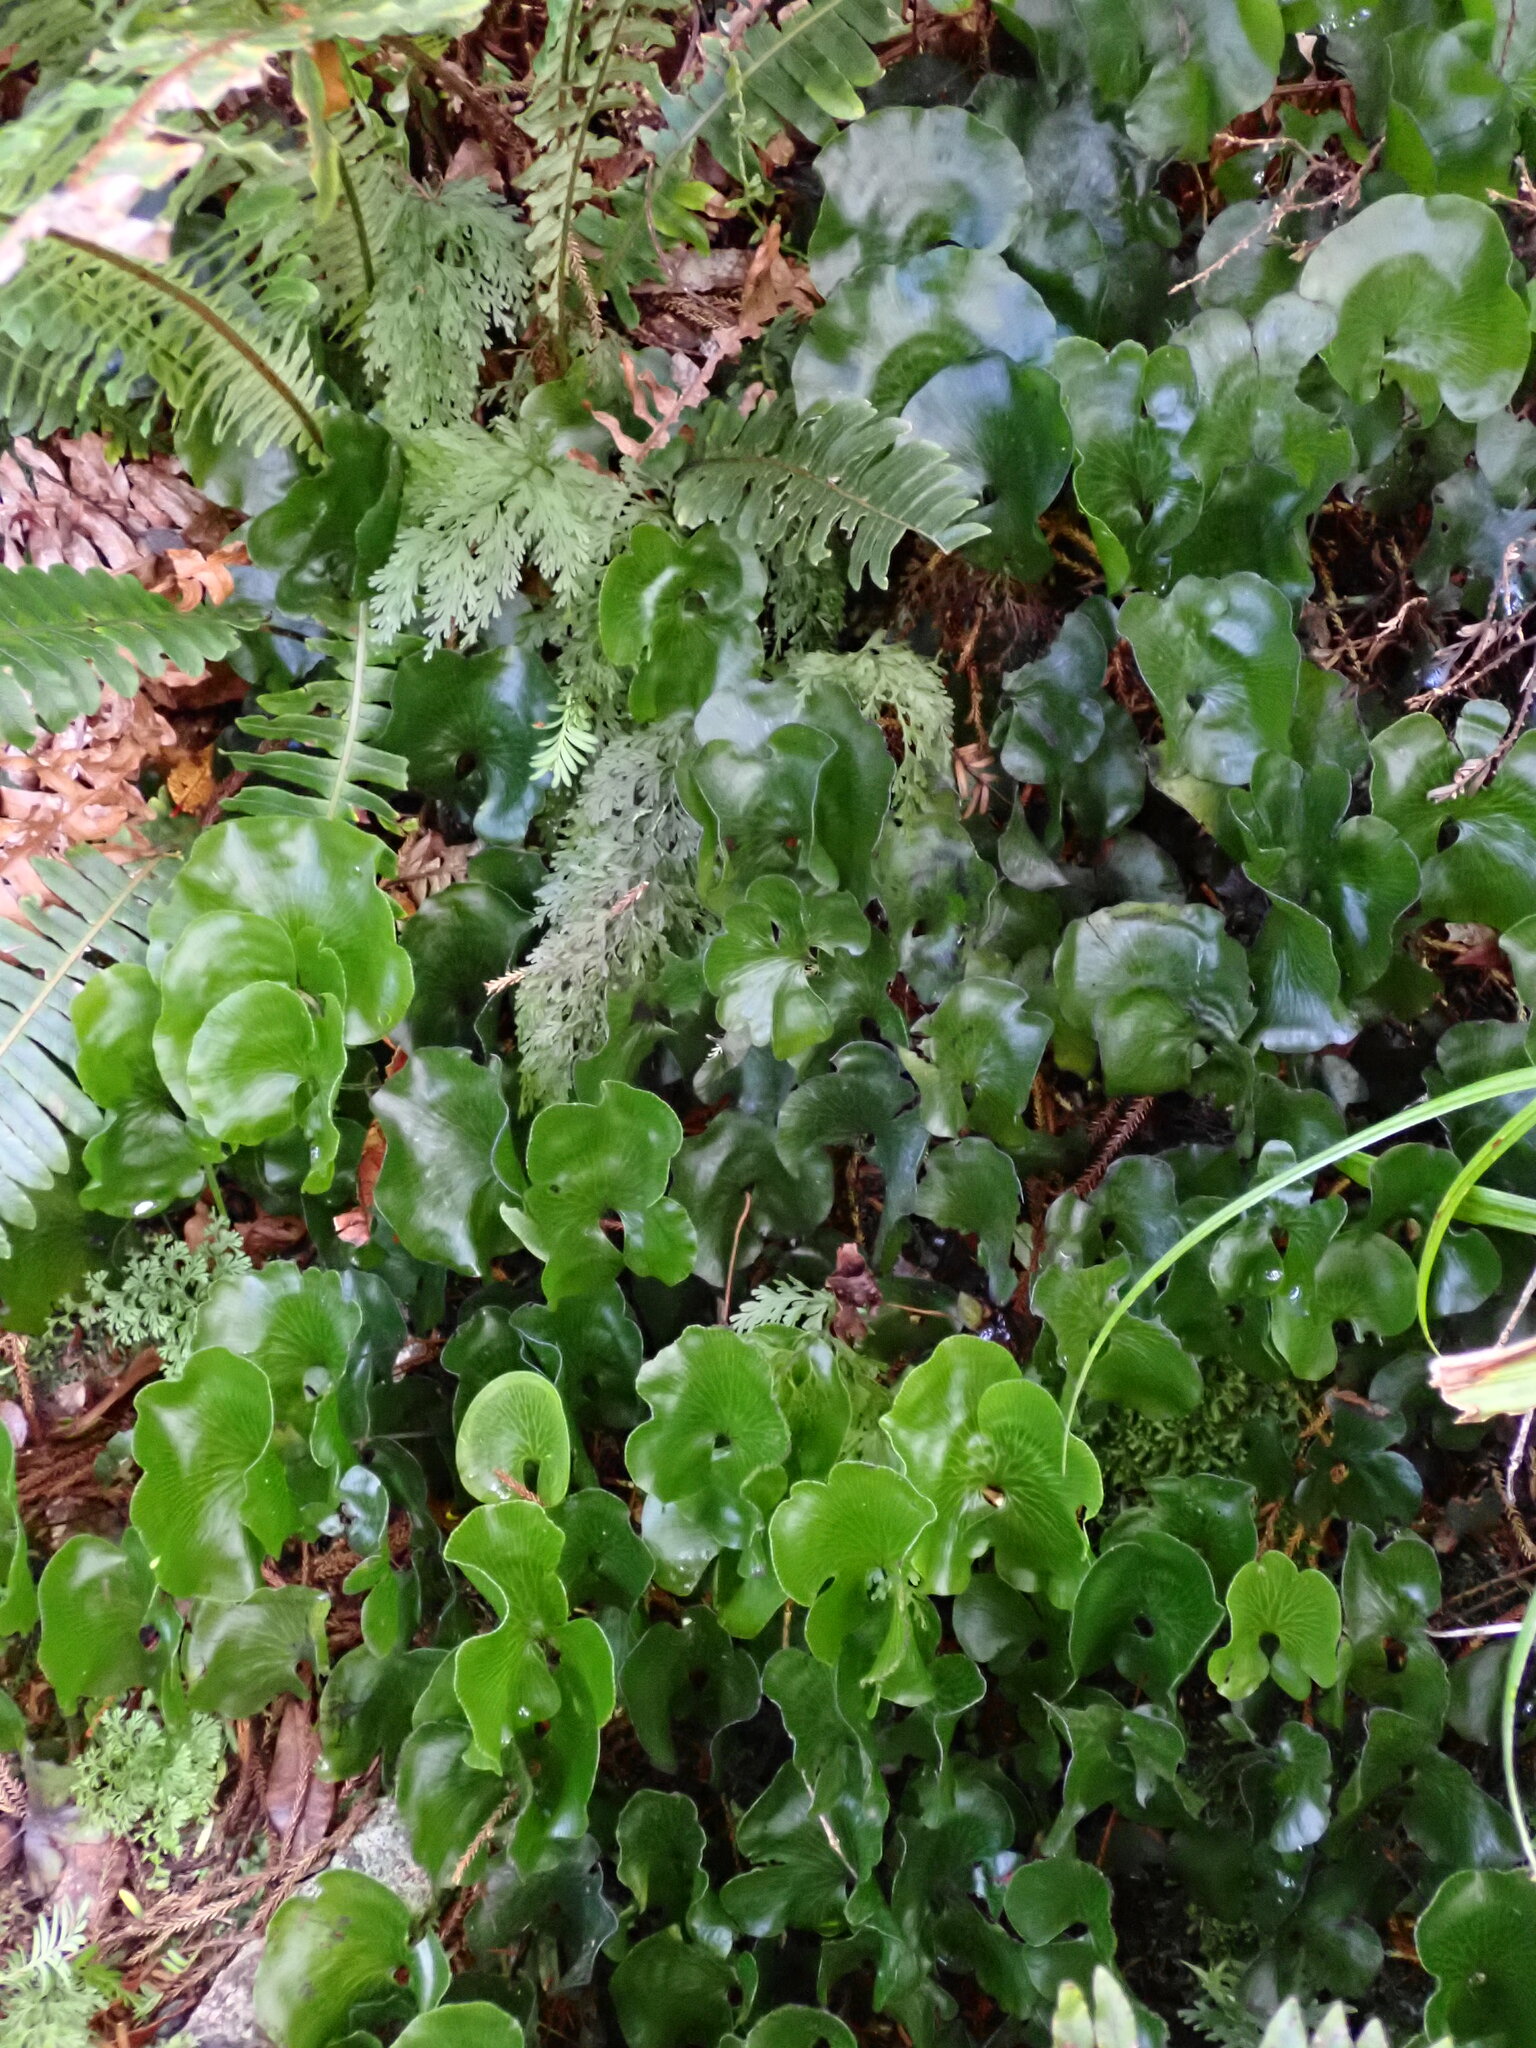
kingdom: Plantae
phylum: Tracheophyta
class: Polypodiopsida
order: Hymenophyllales
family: Hymenophyllaceae
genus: Hymenophyllum
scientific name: Hymenophyllum nephrophyllum
